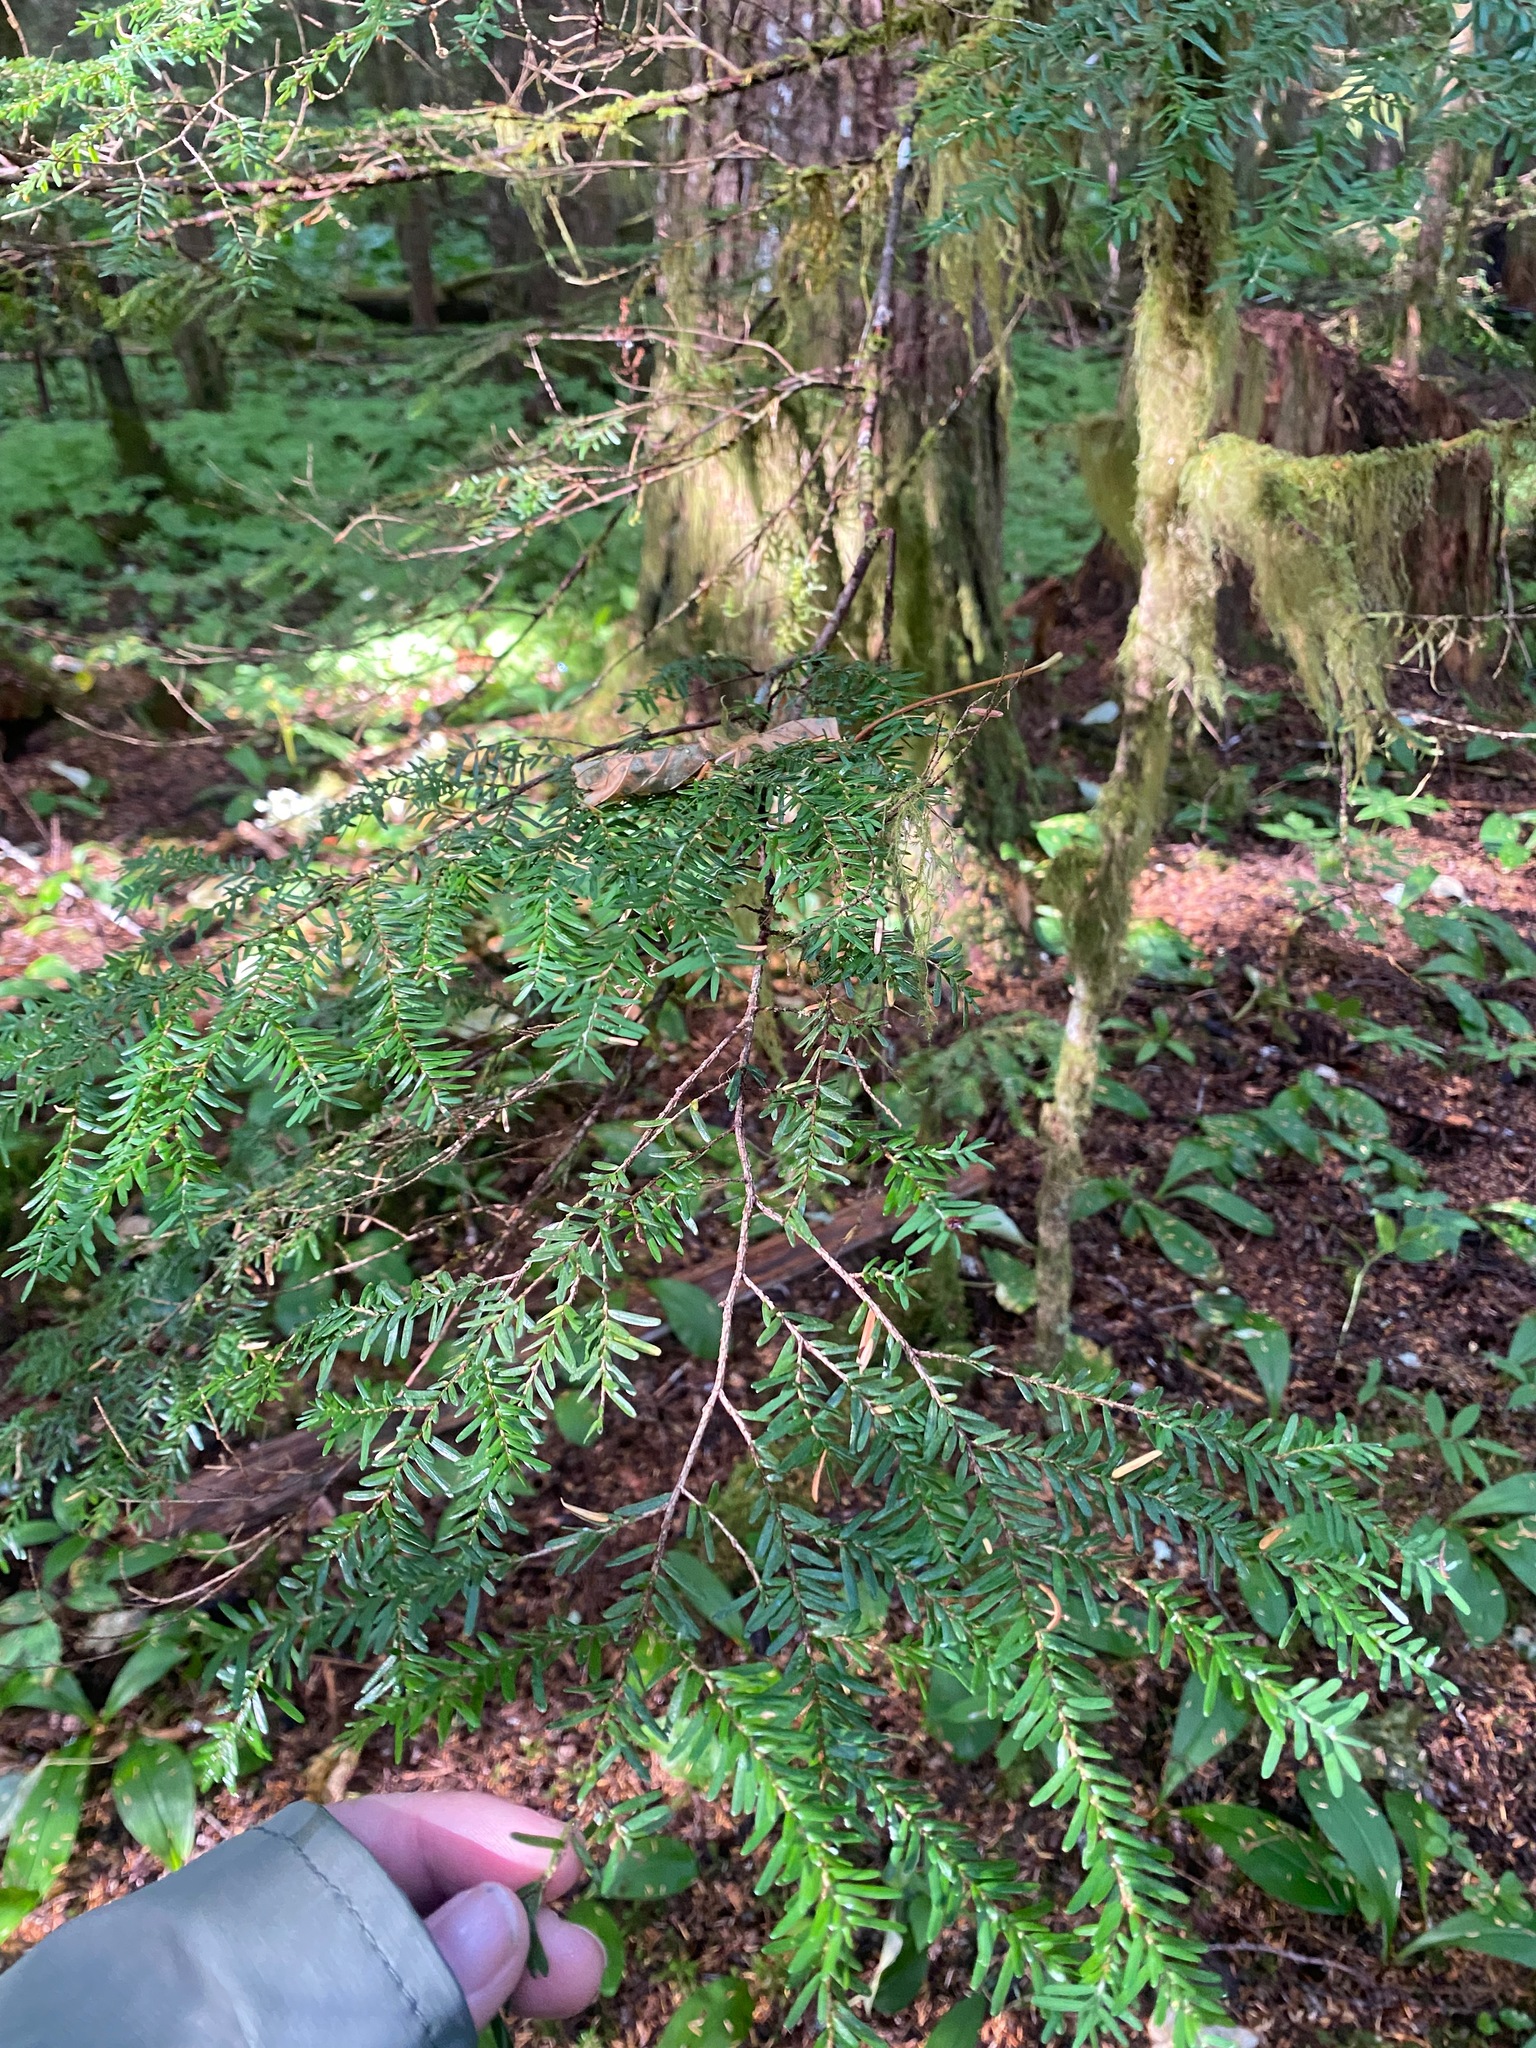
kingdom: Plantae
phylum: Tracheophyta
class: Pinopsida
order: Pinales
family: Pinaceae
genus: Tsuga
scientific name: Tsuga heterophylla
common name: Western hemlock
